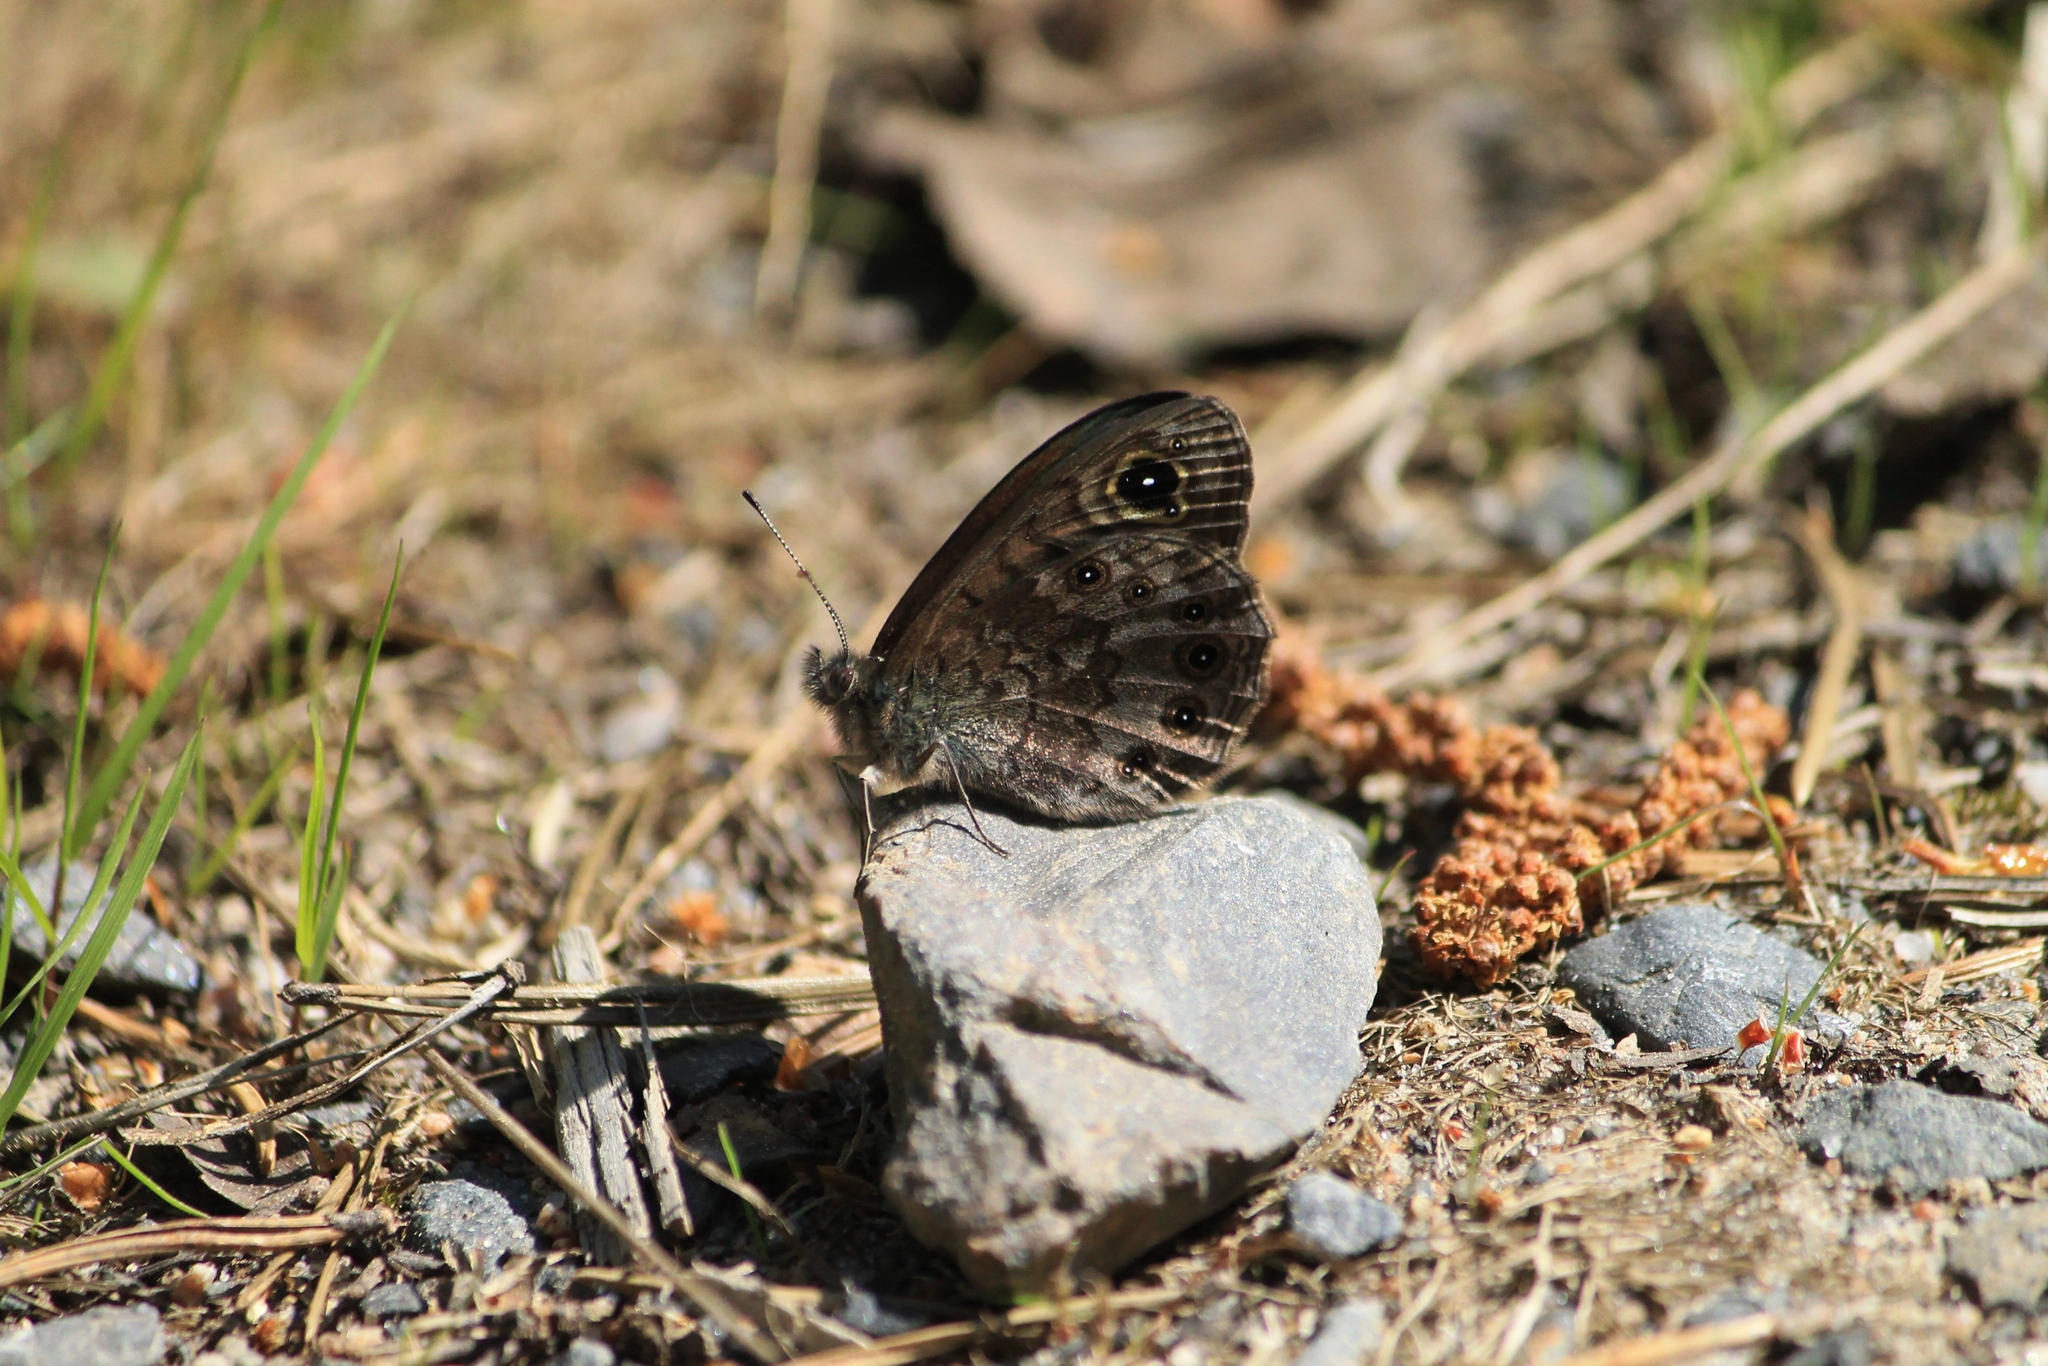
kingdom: Animalia
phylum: Arthropoda
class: Insecta
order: Lepidoptera
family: Nymphalidae
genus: Pararge
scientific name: Pararge petropolitana
